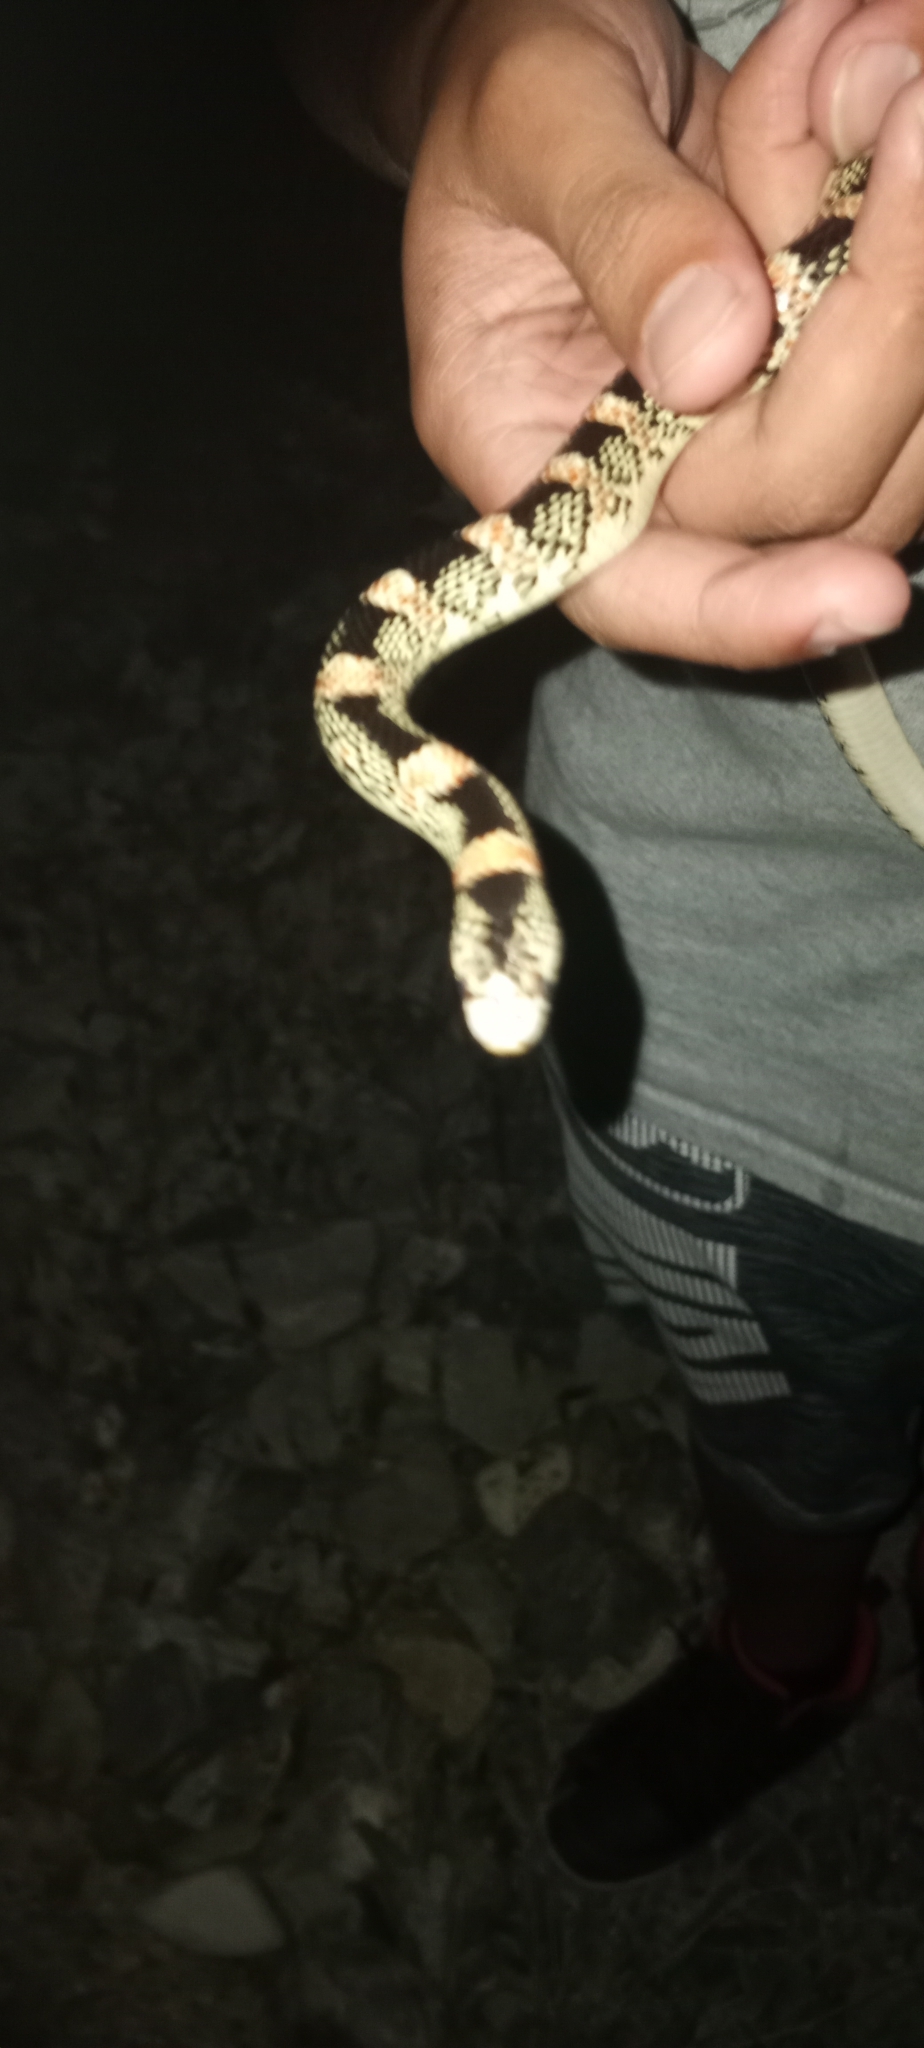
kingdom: Animalia
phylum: Chordata
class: Squamata
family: Colubridae
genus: Rhinocheilus
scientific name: Rhinocheilus lecontei
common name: Longnose snake
